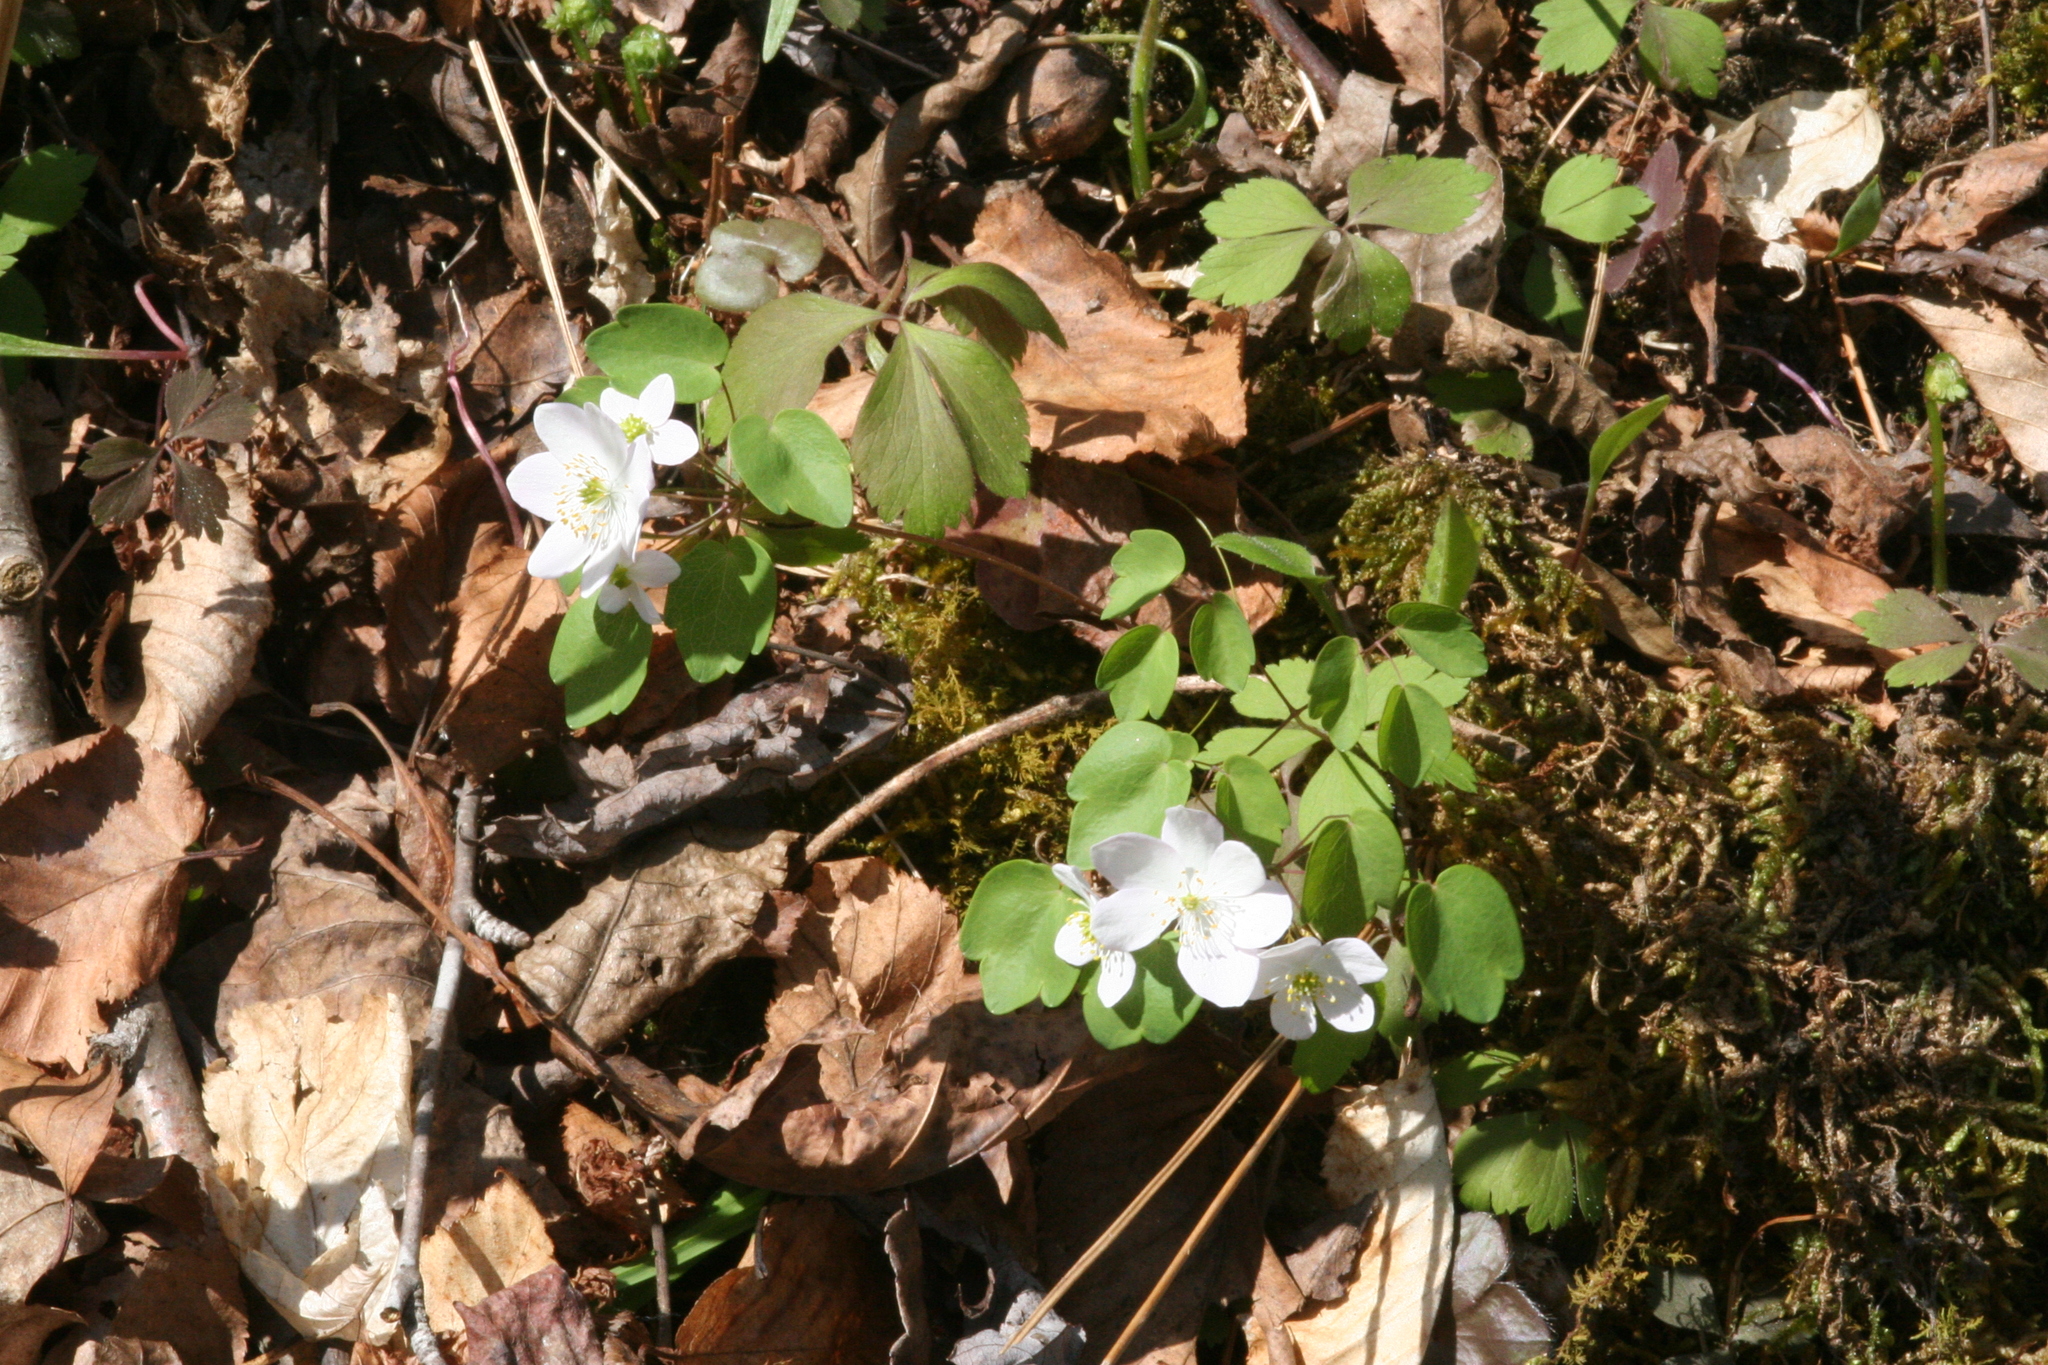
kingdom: Plantae
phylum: Tracheophyta
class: Magnoliopsida
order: Ranunculales
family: Ranunculaceae
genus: Thalictrum
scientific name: Thalictrum thalictroides
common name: Rue-anemone
